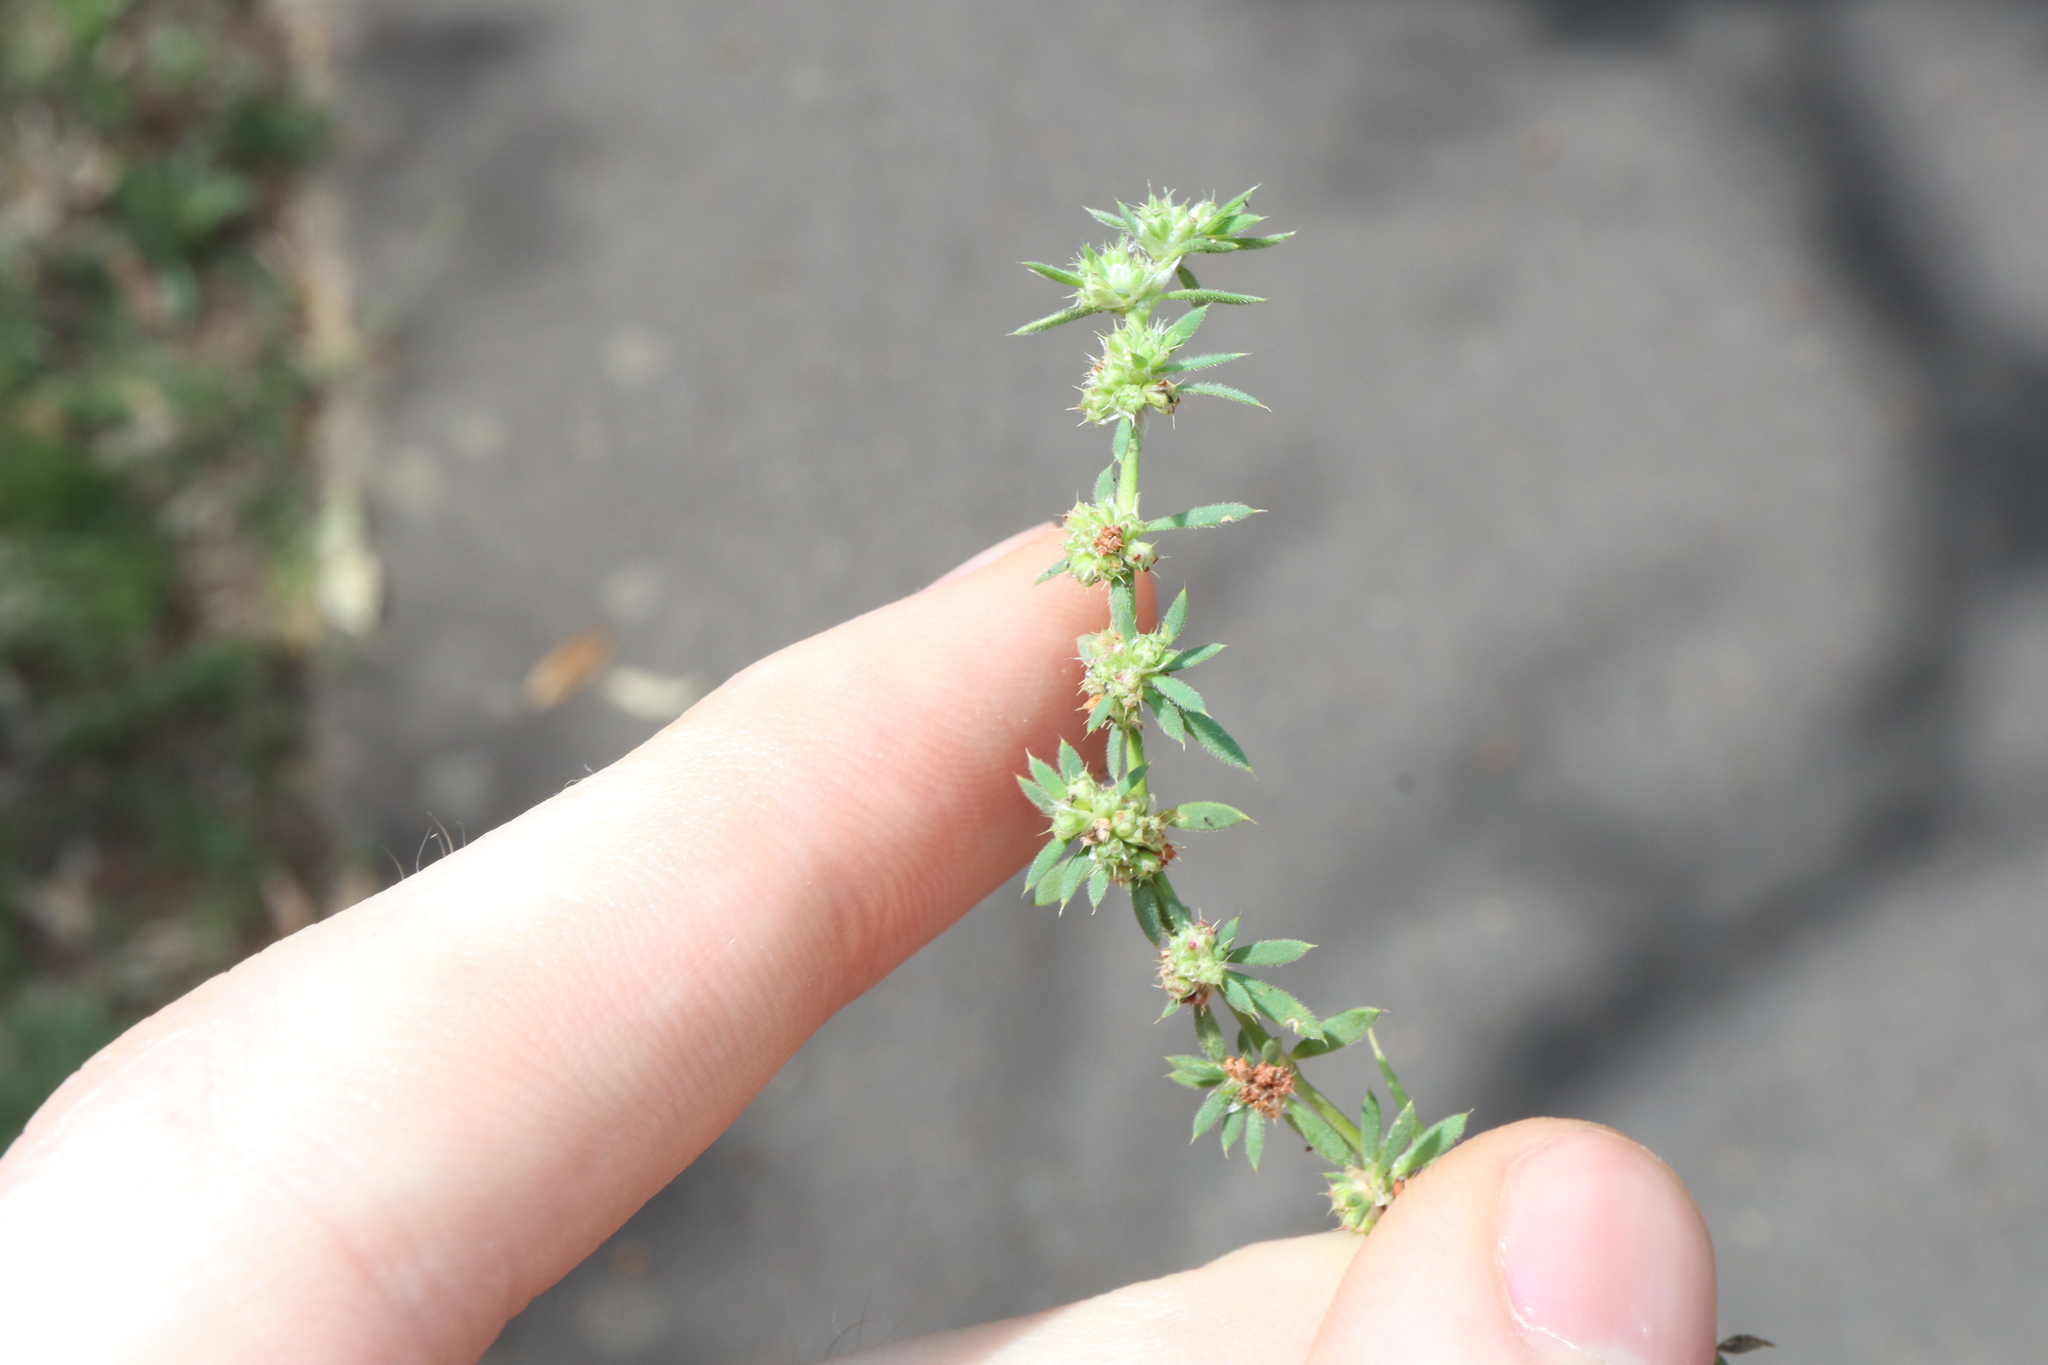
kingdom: Plantae
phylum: Tracheophyta
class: Magnoliopsida
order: Caryophyllales
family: Caryophyllaceae
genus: Paronychia
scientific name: Paronychia brasiliana
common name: Brazilian whitlow
